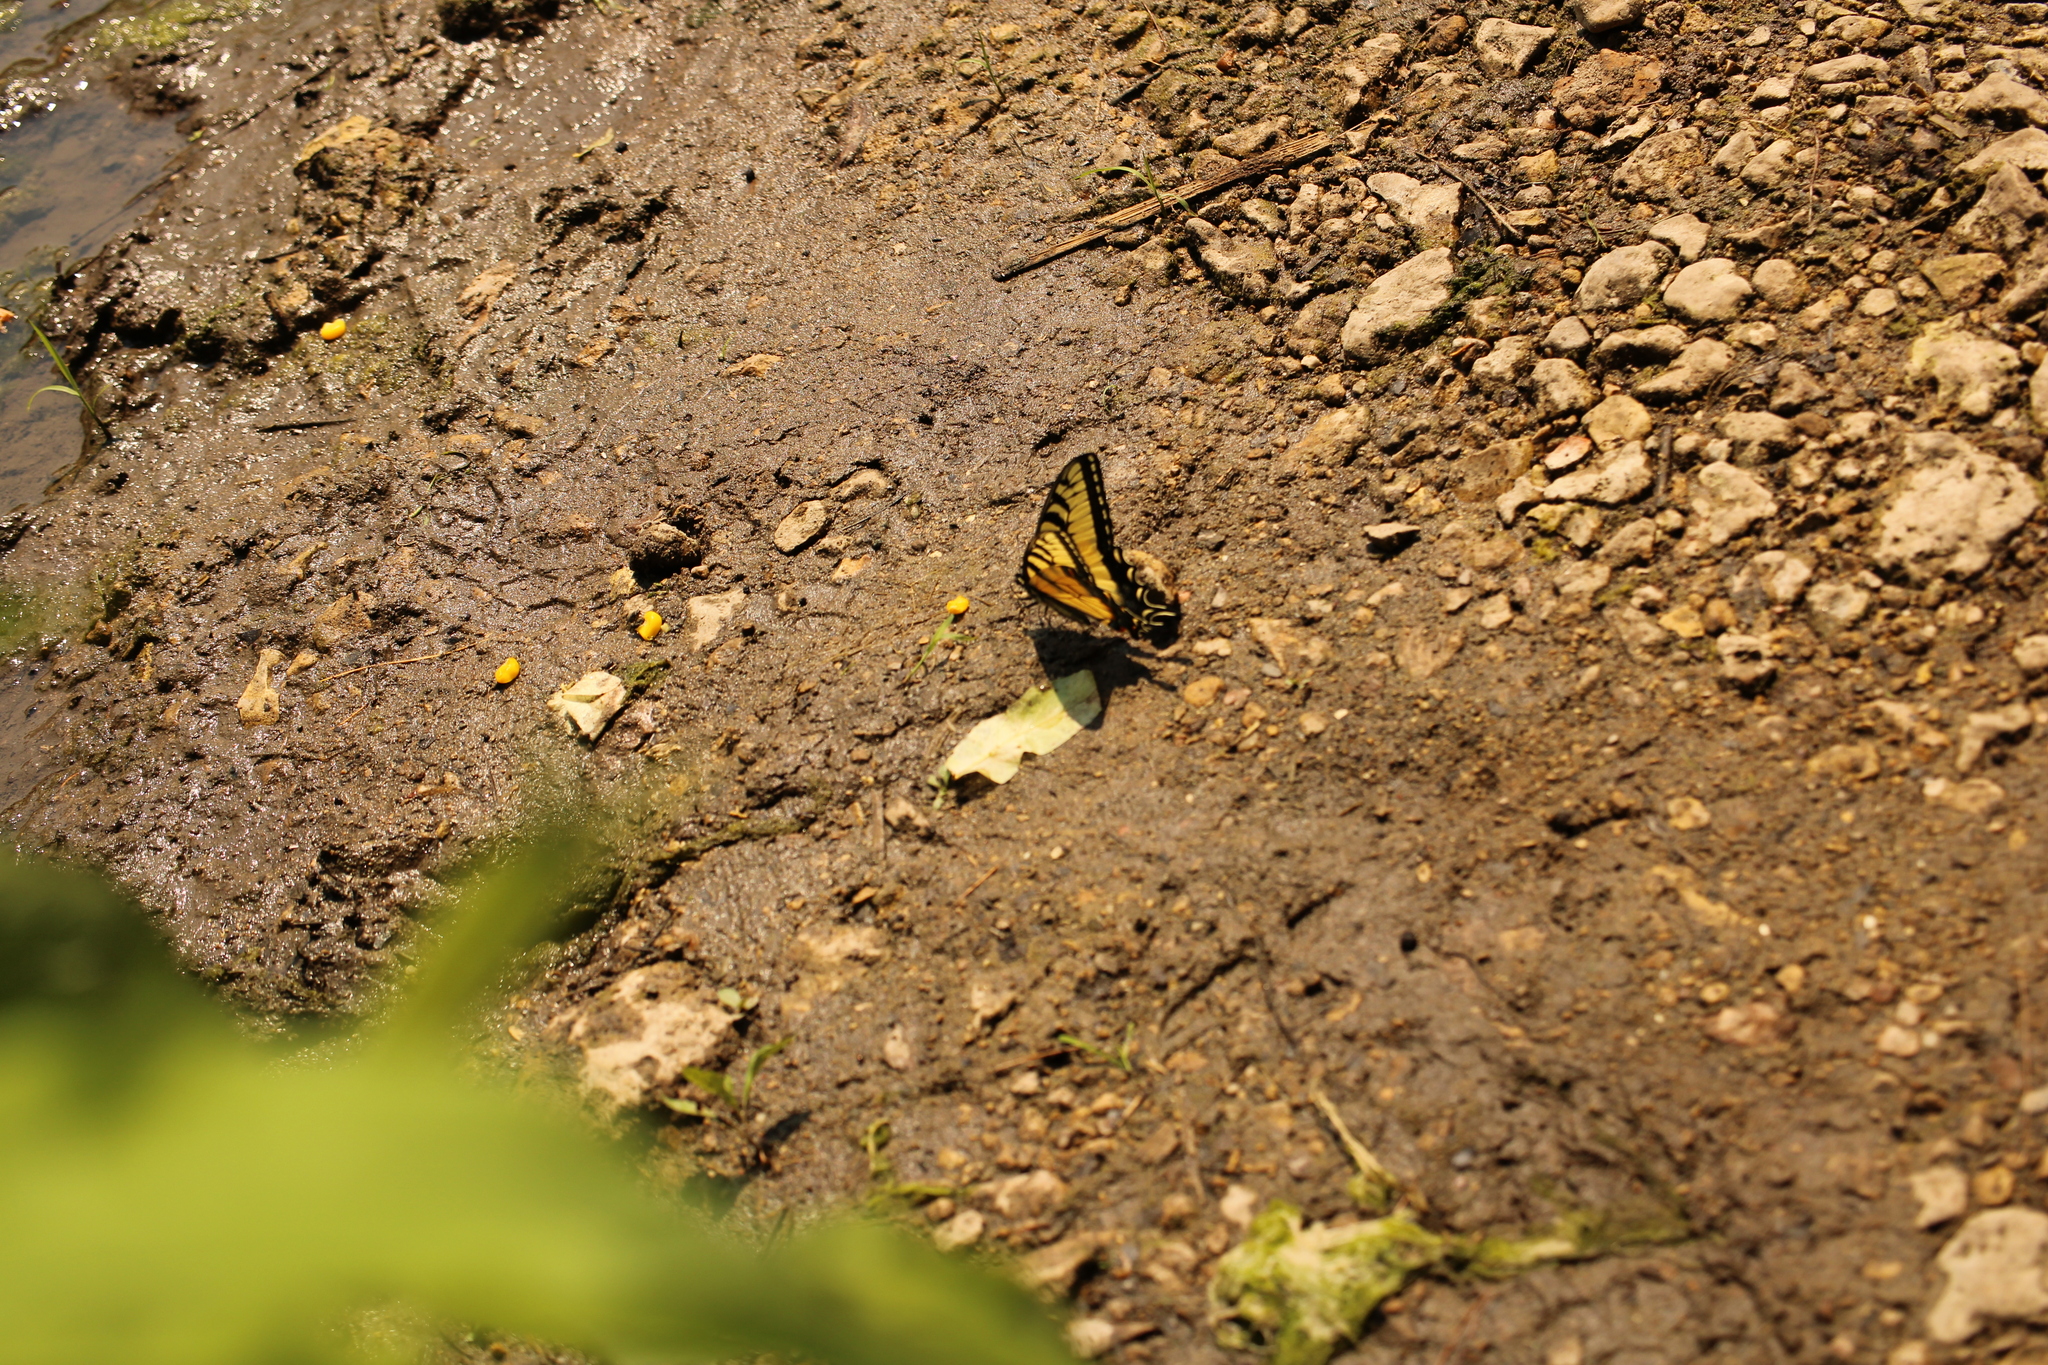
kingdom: Animalia
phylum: Arthropoda
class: Insecta
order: Lepidoptera
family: Papilionidae
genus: Papilio
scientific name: Papilio glaucus
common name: Tiger swallowtail
